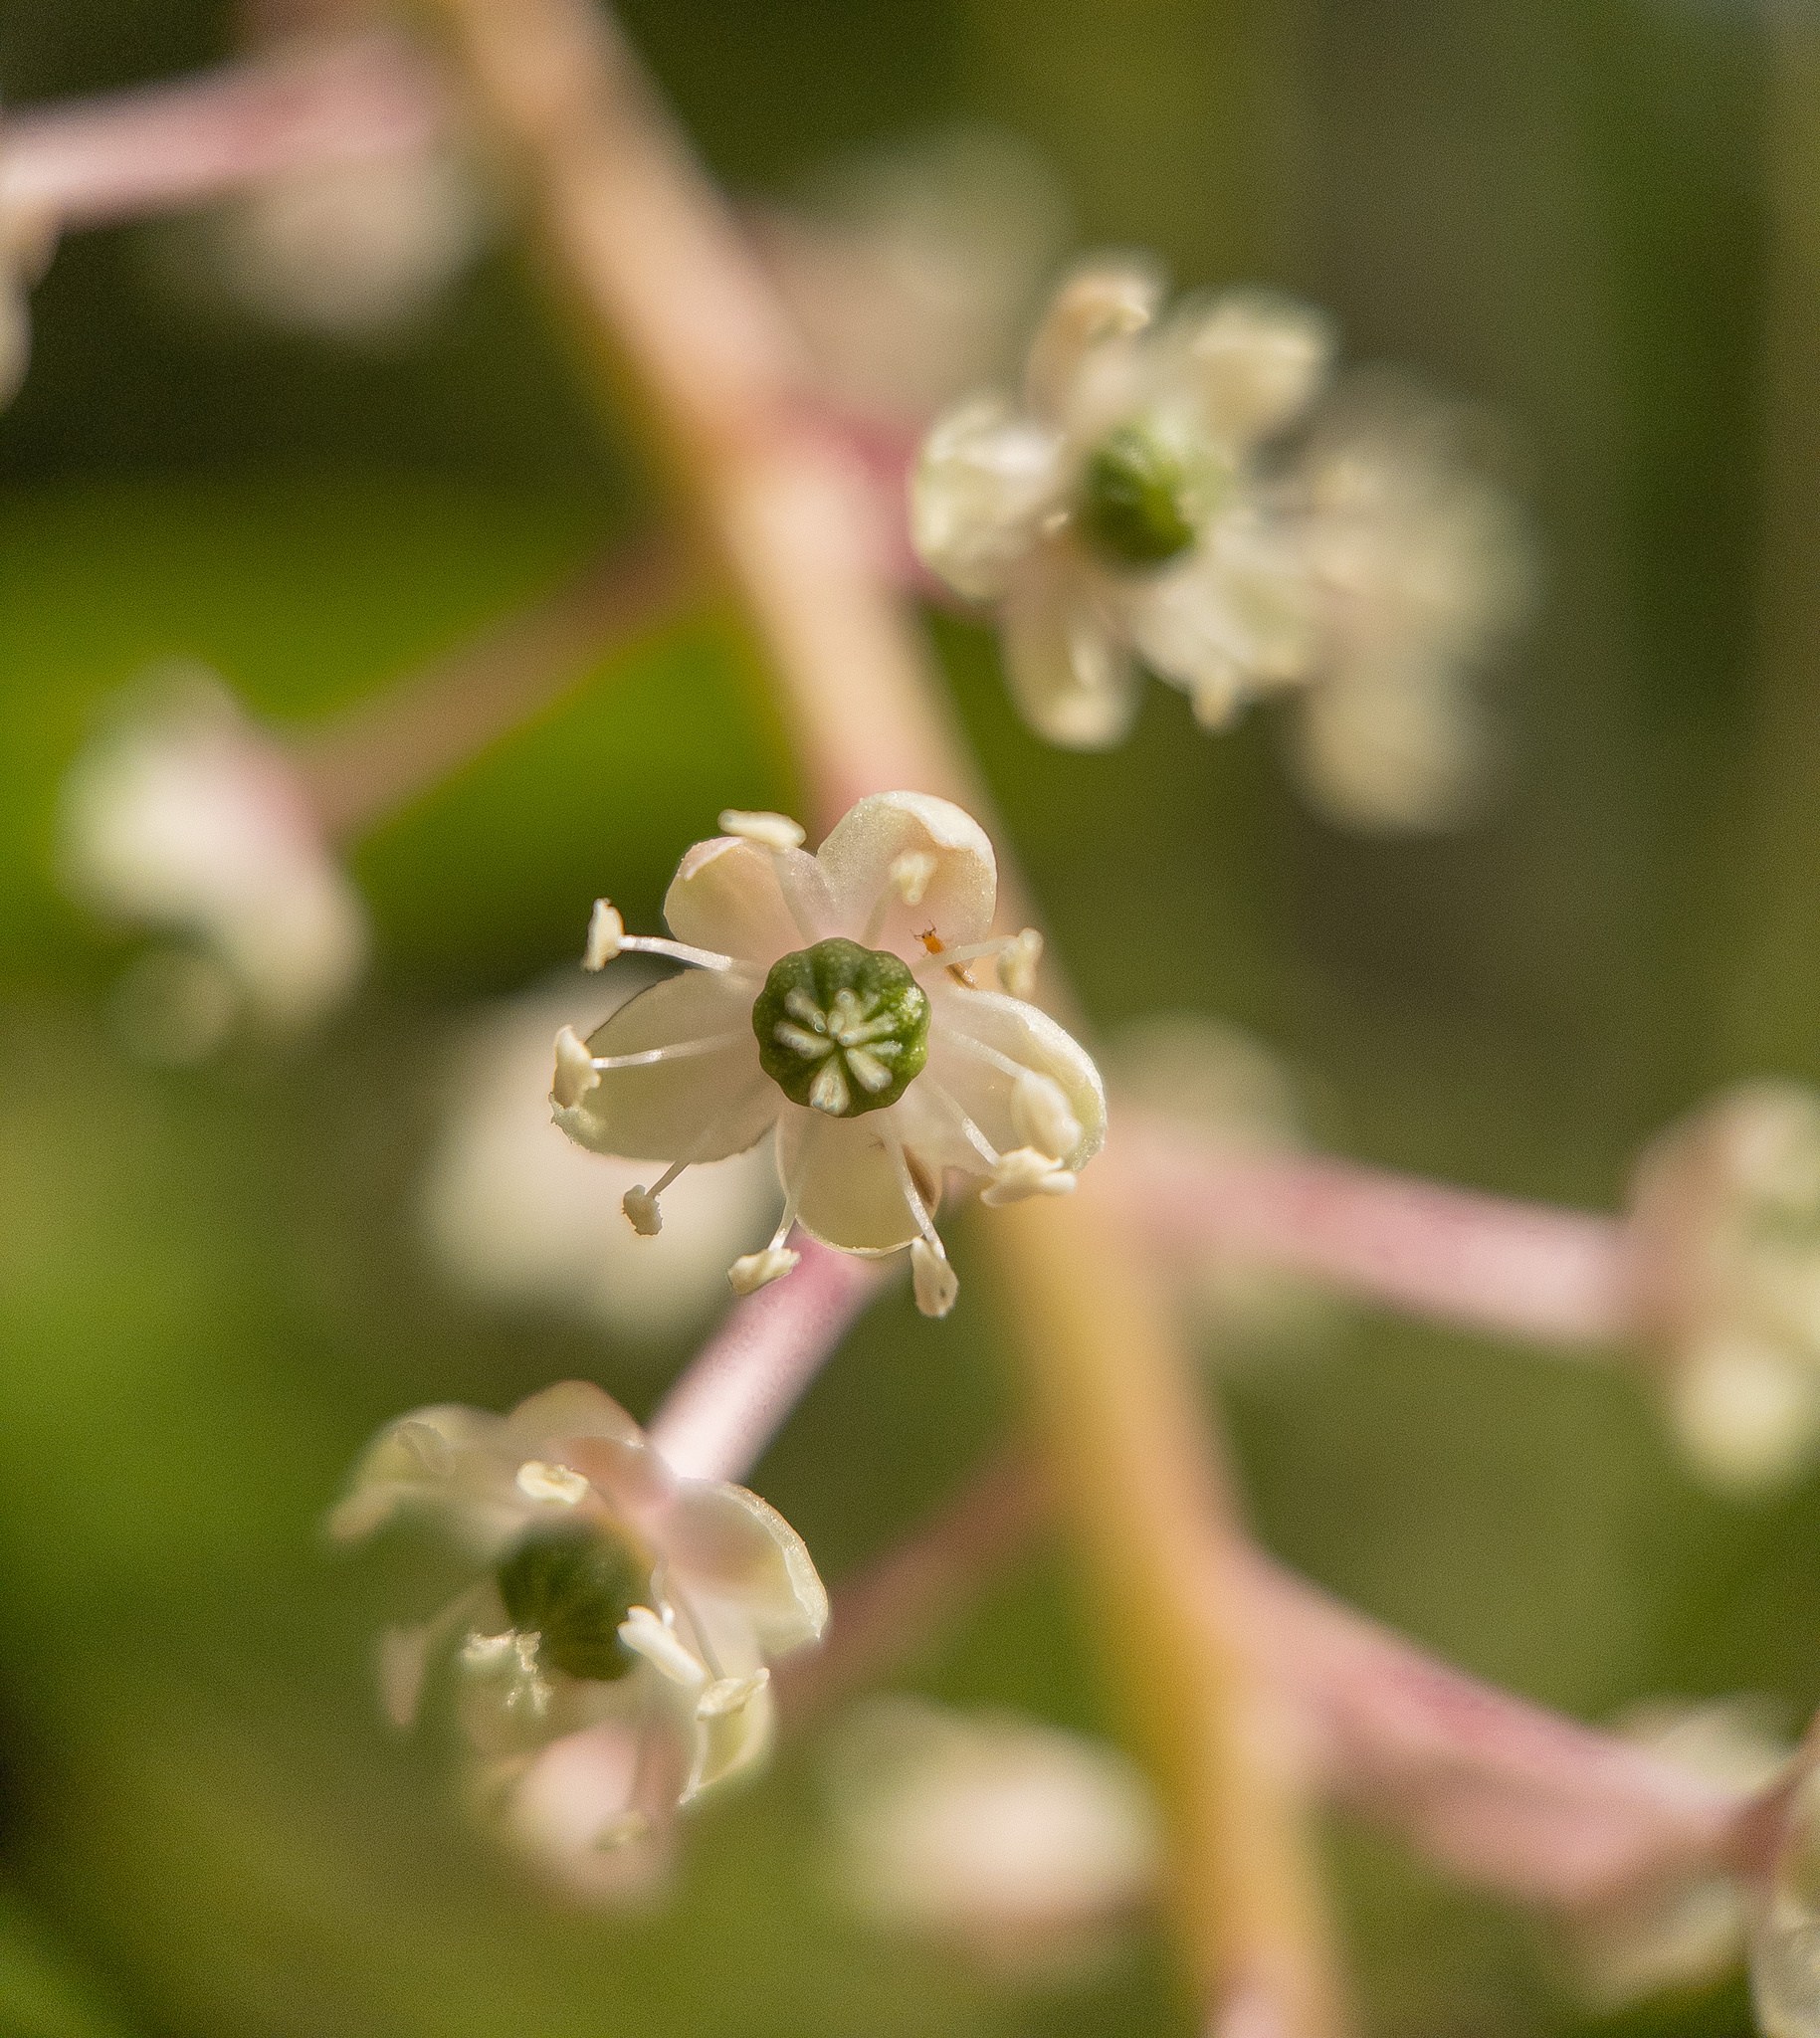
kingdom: Plantae
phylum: Tracheophyta
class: Magnoliopsida
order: Caryophyllales
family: Phytolaccaceae
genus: Phytolacca
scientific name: Phytolacca americana
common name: American pokeweed
